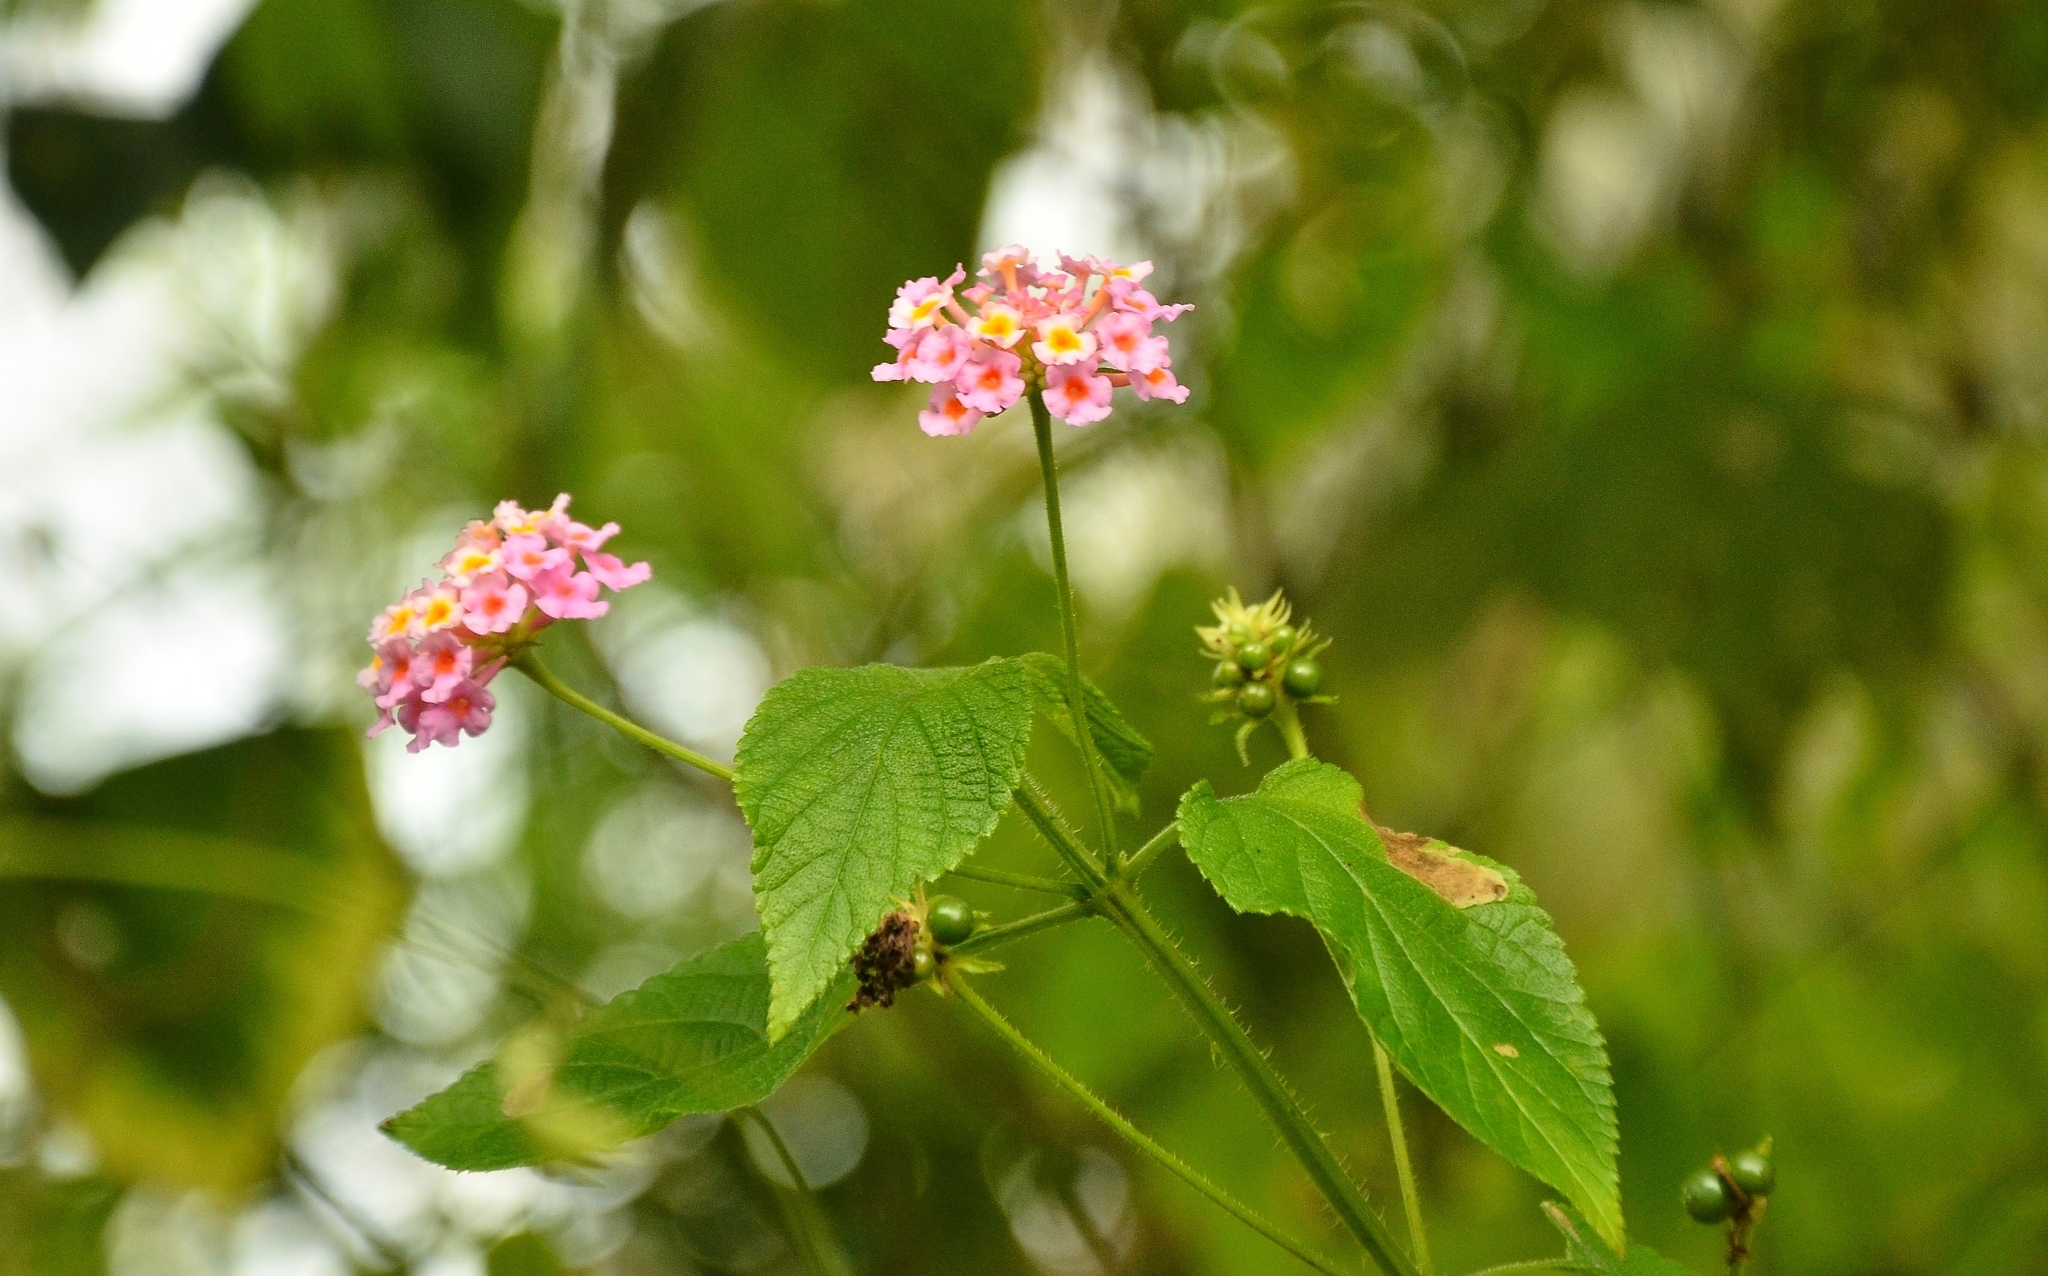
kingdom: Plantae
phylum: Tracheophyta
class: Magnoliopsida
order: Lamiales
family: Verbenaceae
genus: Lantana
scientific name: Lantana camara
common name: Lantana
